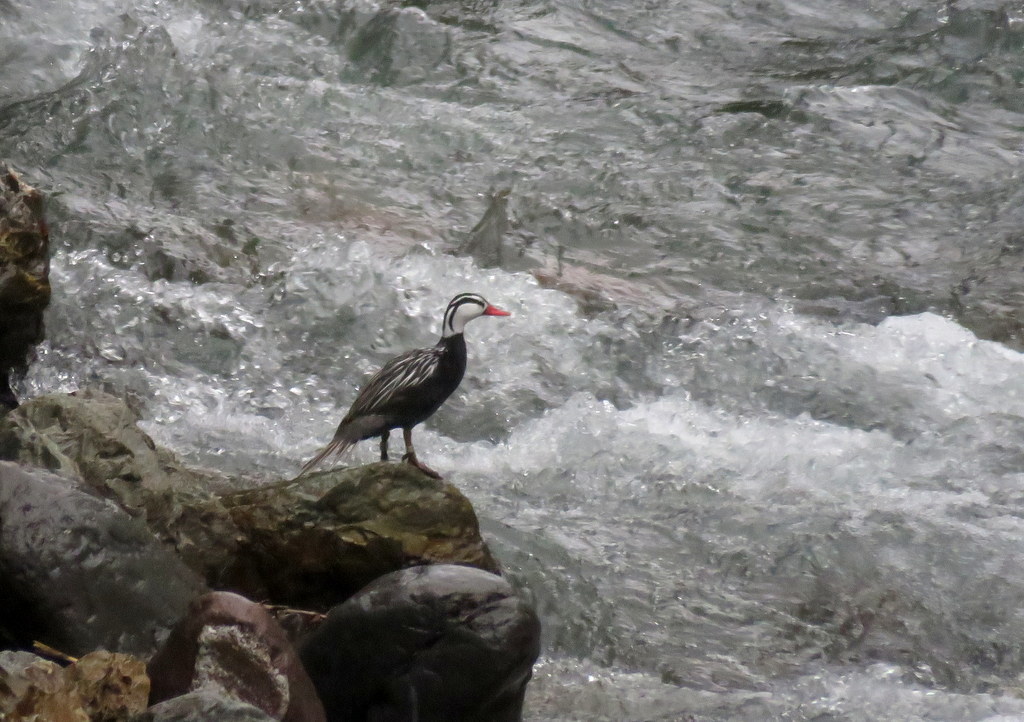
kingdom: Animalia
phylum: Chordata
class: Aves
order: Anseriformes
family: Anatidae
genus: Merganetta
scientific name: Merganetta armata
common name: Torrent duck
